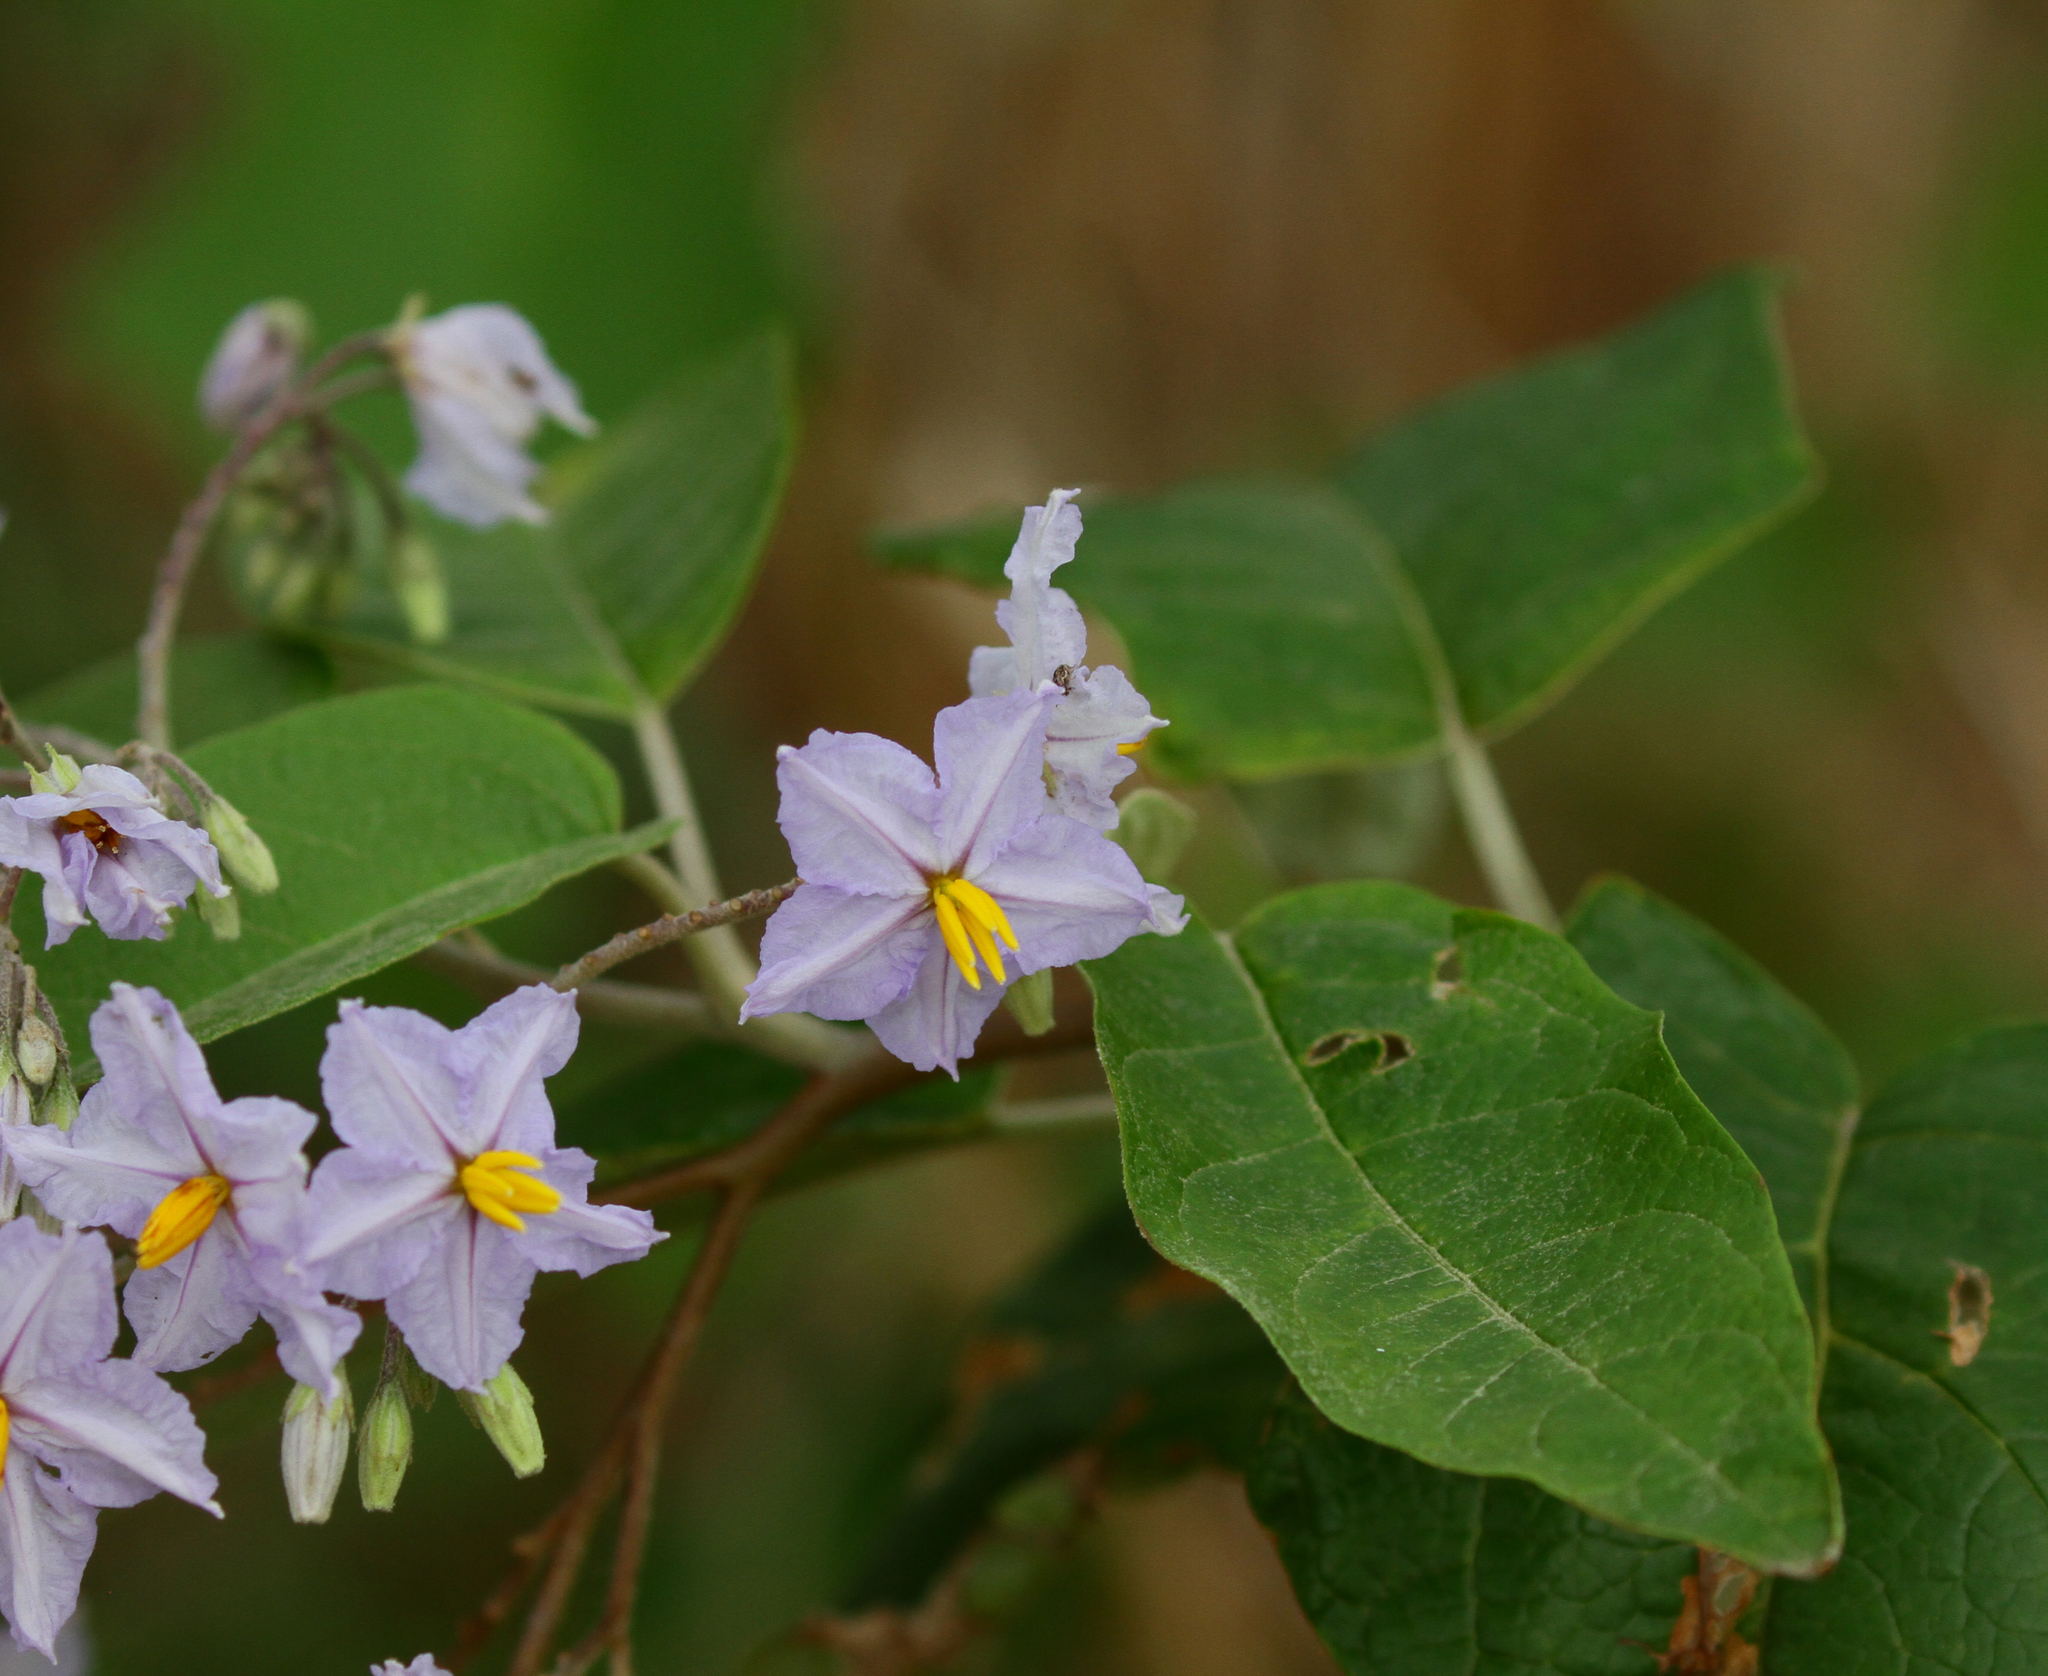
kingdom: Plantae
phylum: Tracheophyta
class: Magnoliopsida
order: Solanales
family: Solanaceae
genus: Solanum
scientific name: Solanum paniculatum
